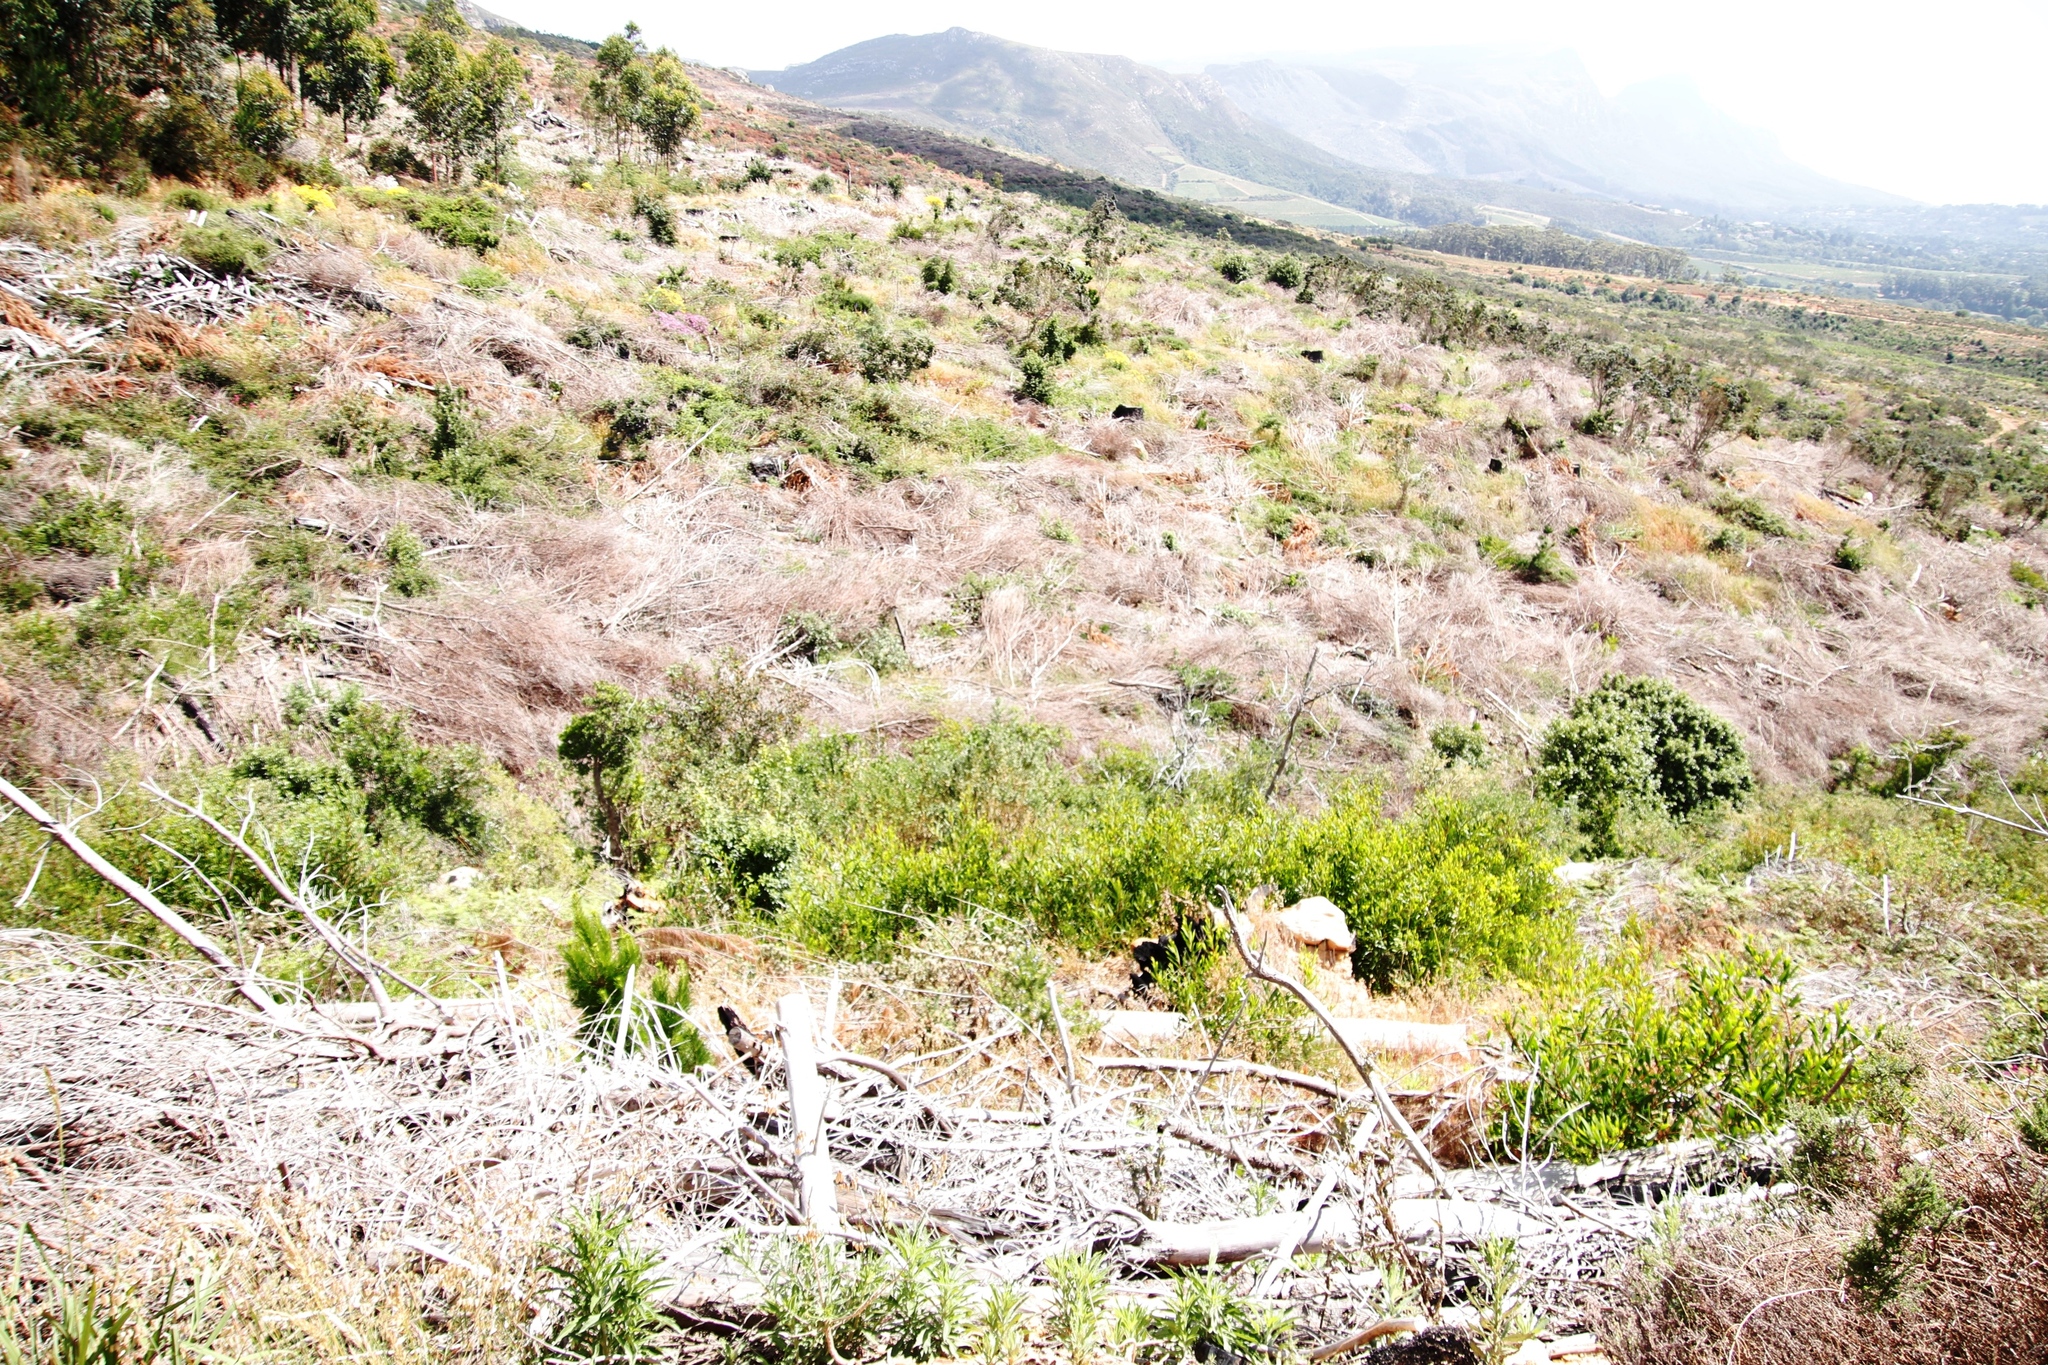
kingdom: Plantae
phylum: Tracheophyta
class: Magnoliopsida
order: Fabales
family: Fabaceae
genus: Acacia
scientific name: Acacia longifolia
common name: Sydney golden wattle
